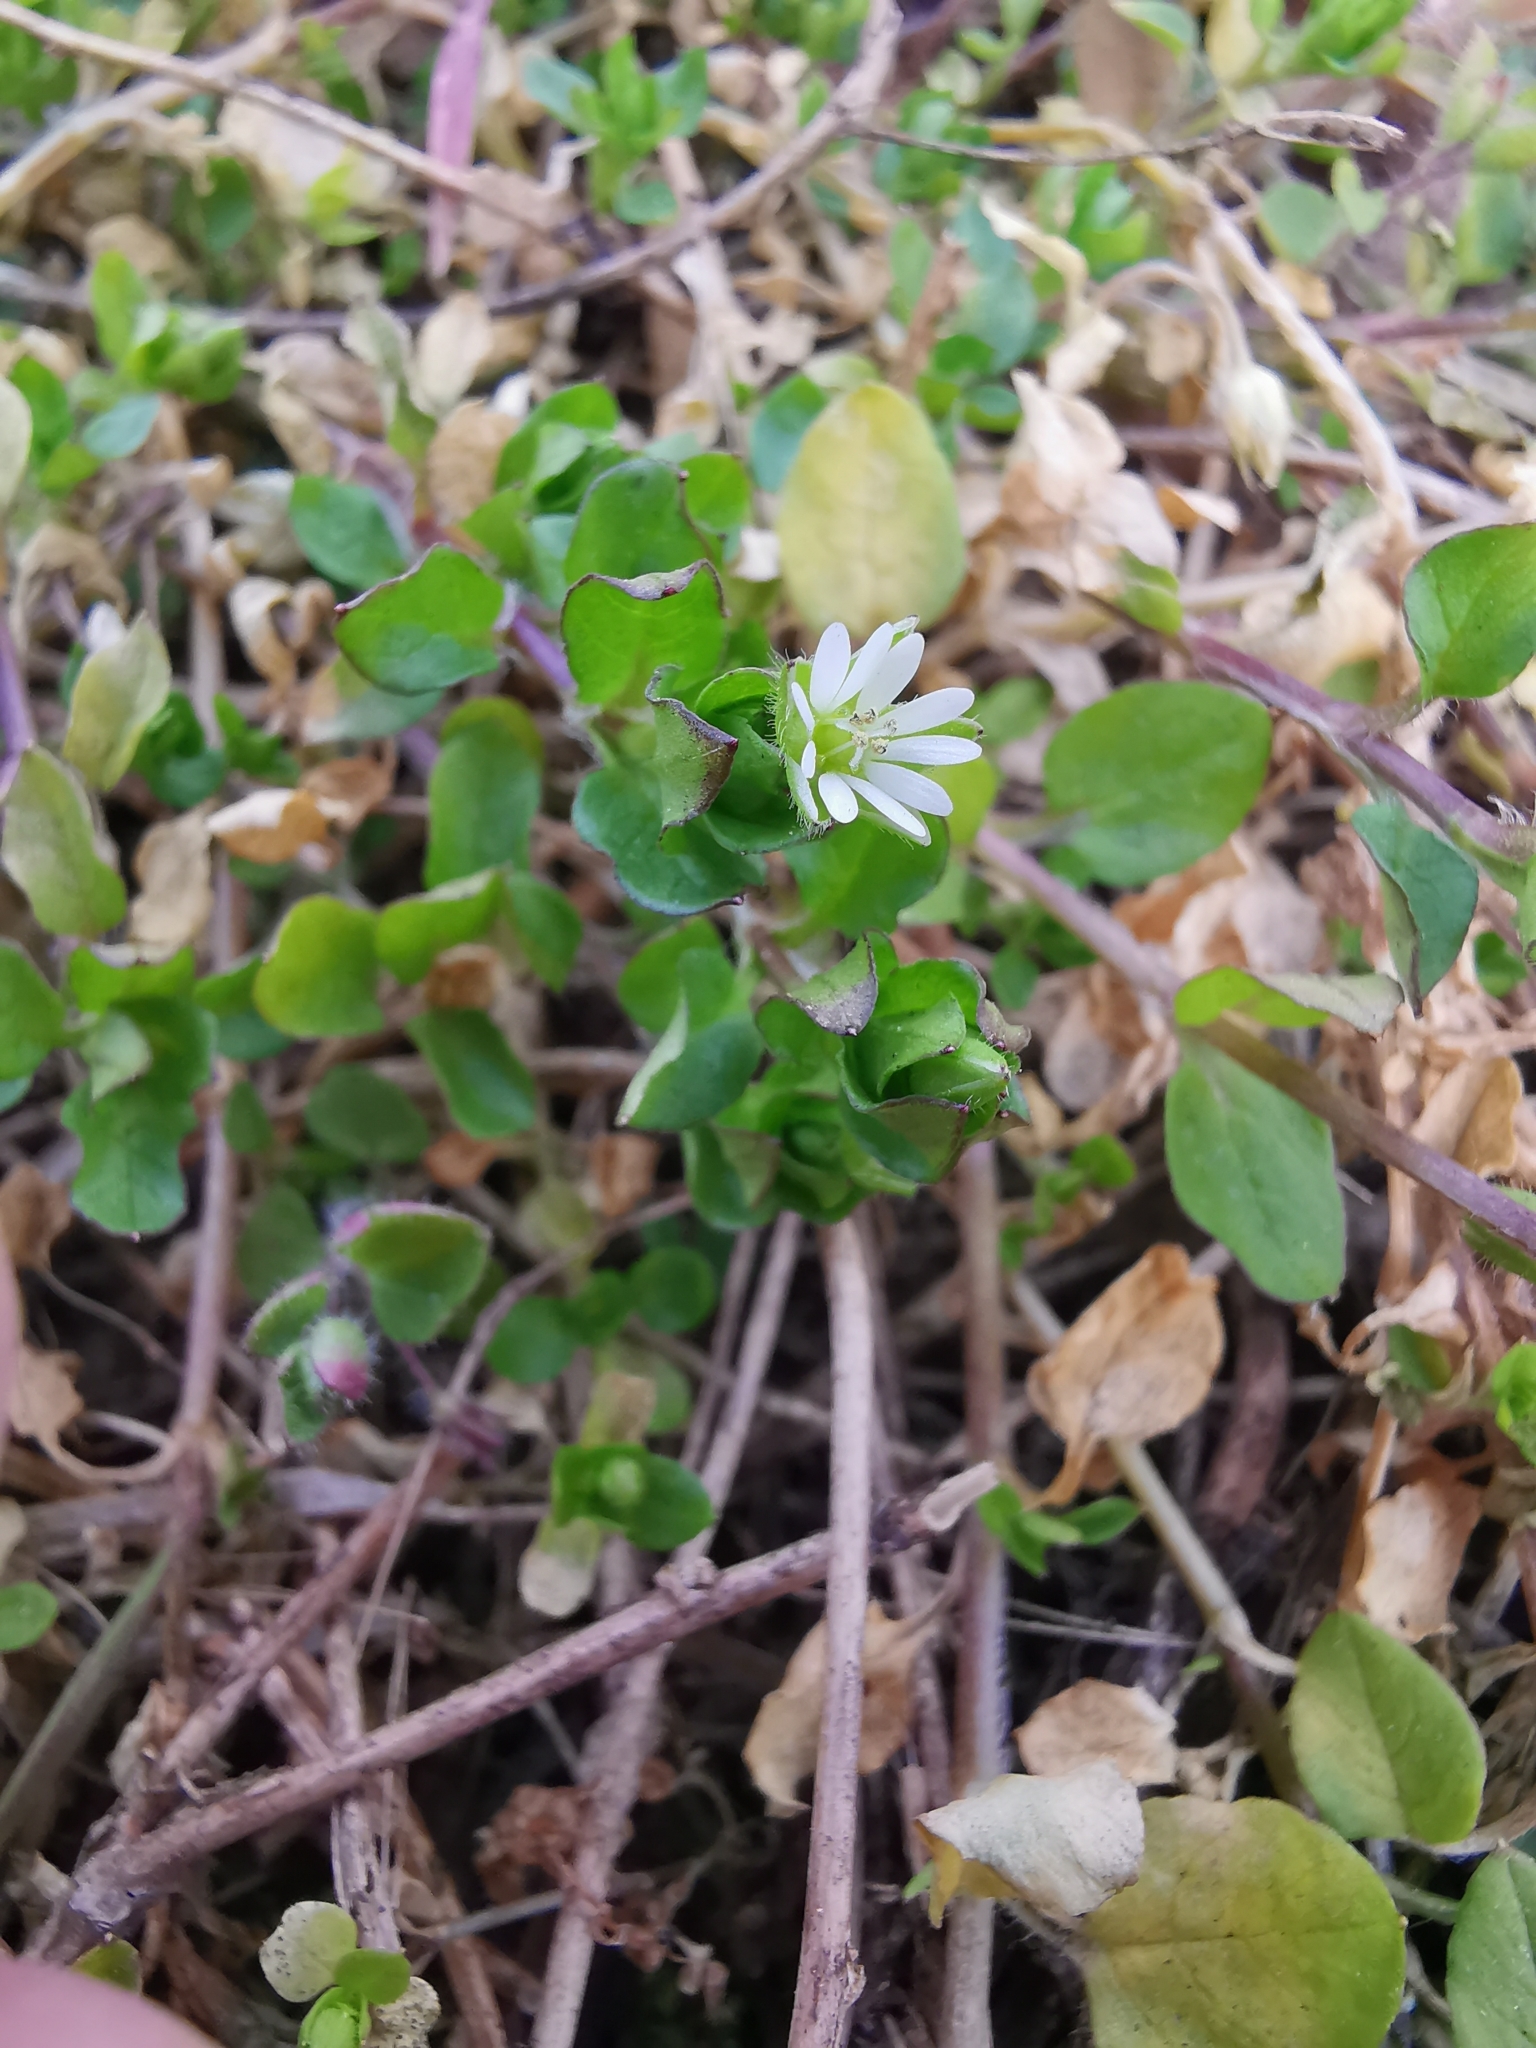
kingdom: Plantae
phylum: Tracheophyta
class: Magnoliopsida
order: Caryophyllales
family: Caryophyllaceae
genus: Stellaria
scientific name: Stellaria media
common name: Common chickweed
